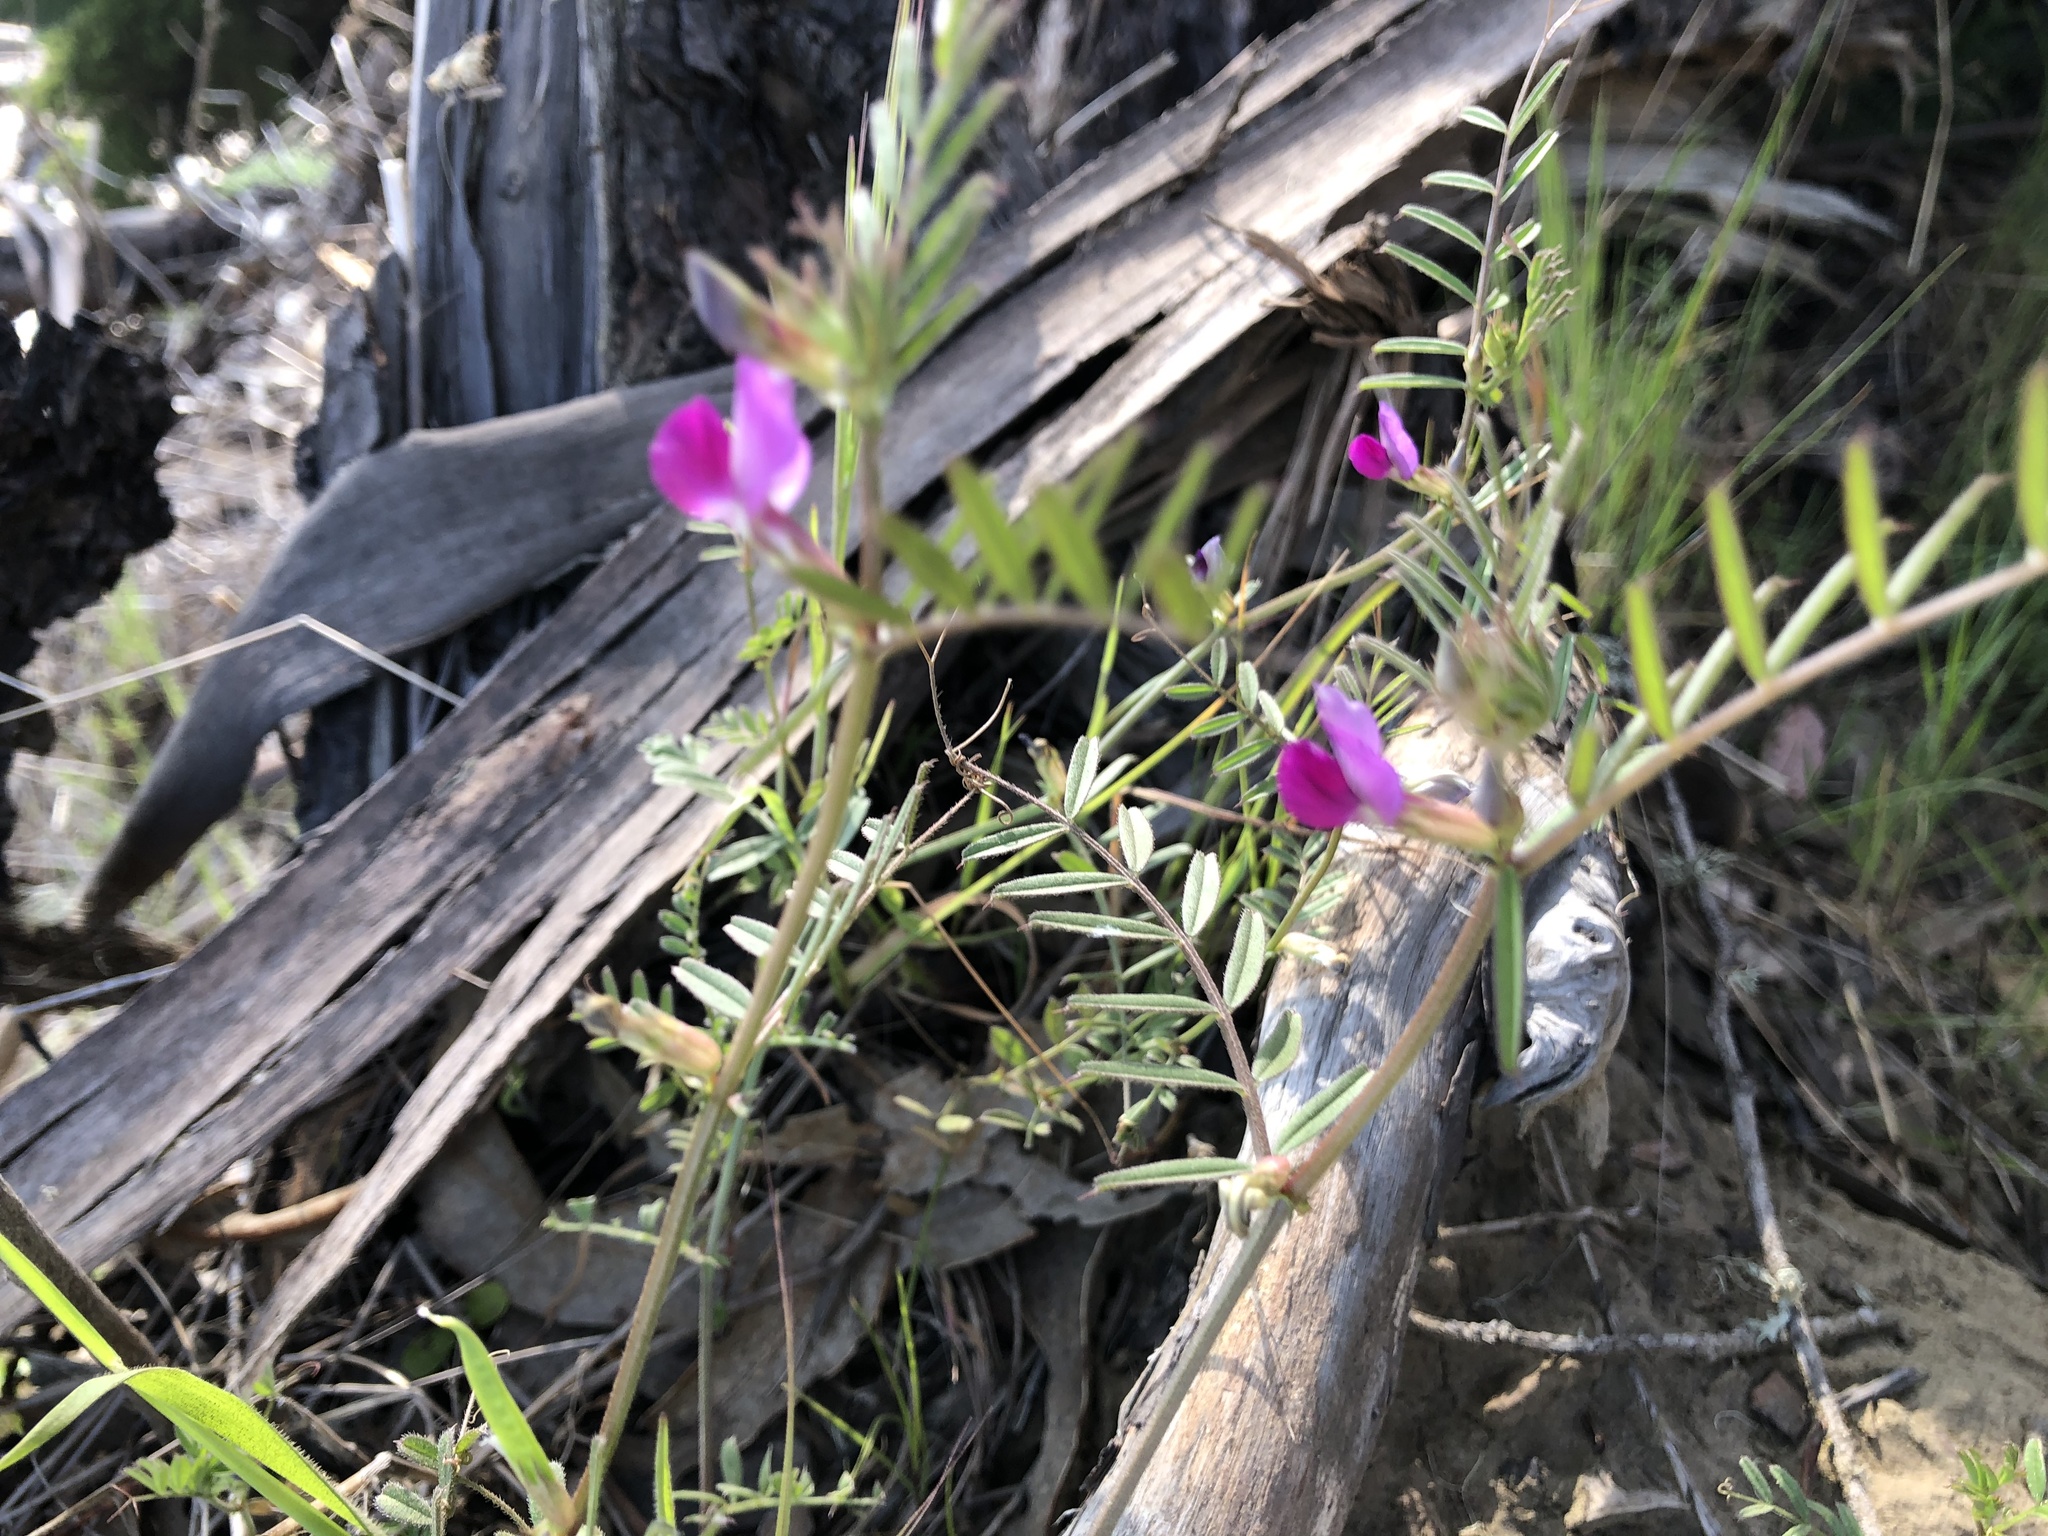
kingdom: Plantae
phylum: Tracheophyta
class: Magnoliopsida
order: Fabales
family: Fabaceae
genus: Vicia
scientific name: Vicia sativa
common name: Garden vetch
